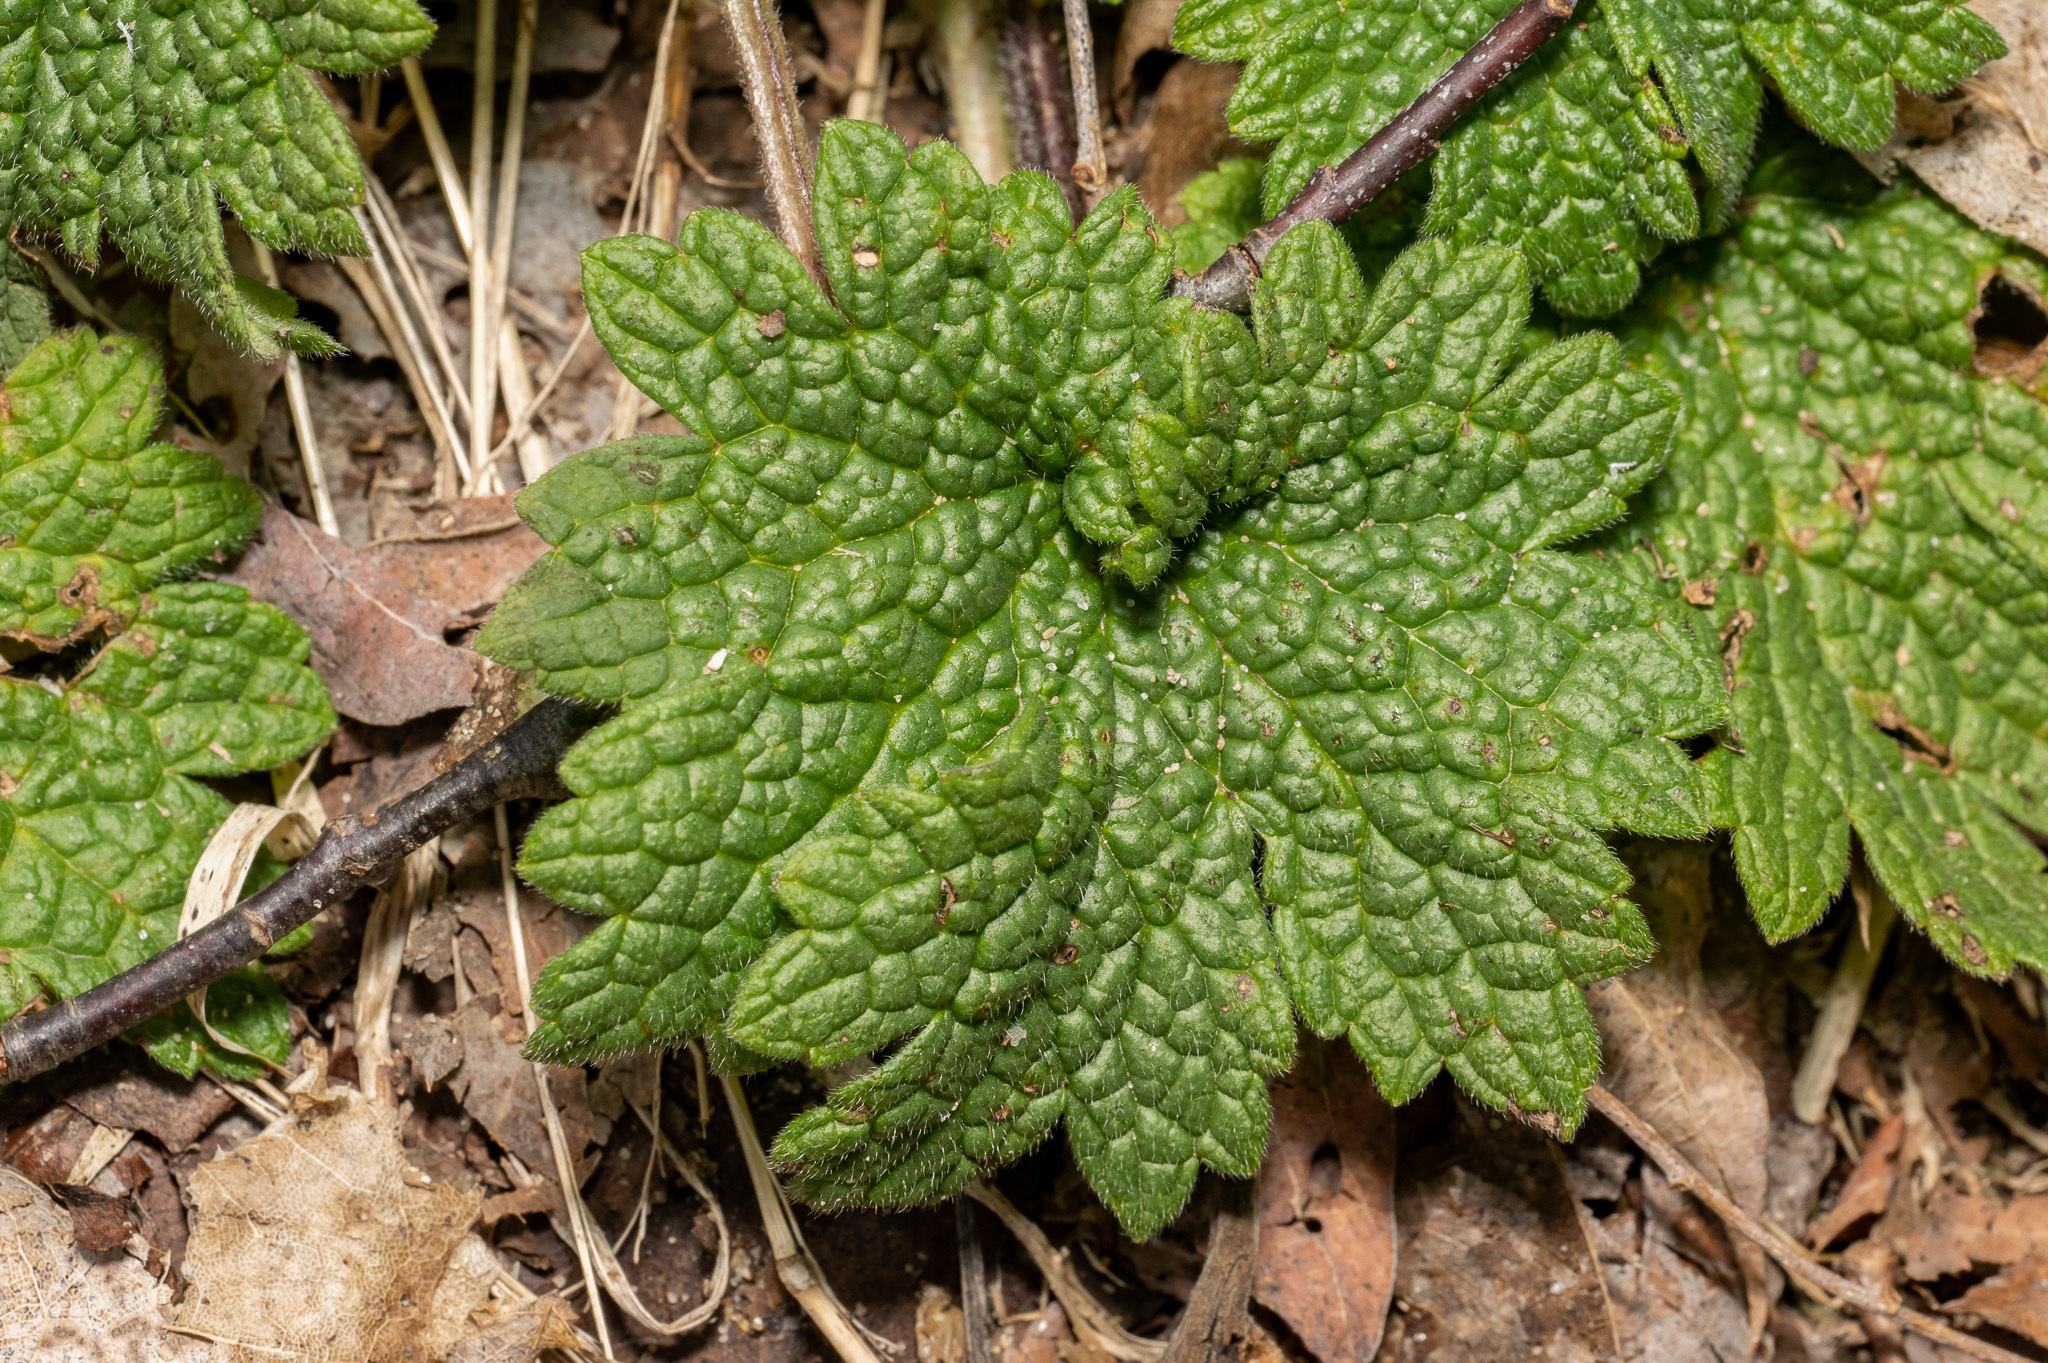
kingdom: Plantae
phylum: Tracheophyta
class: Magnoliopsida
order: Lamiales
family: Lamiaceae
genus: Leonurus
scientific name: Leonurus cardiaca
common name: Motherwort
